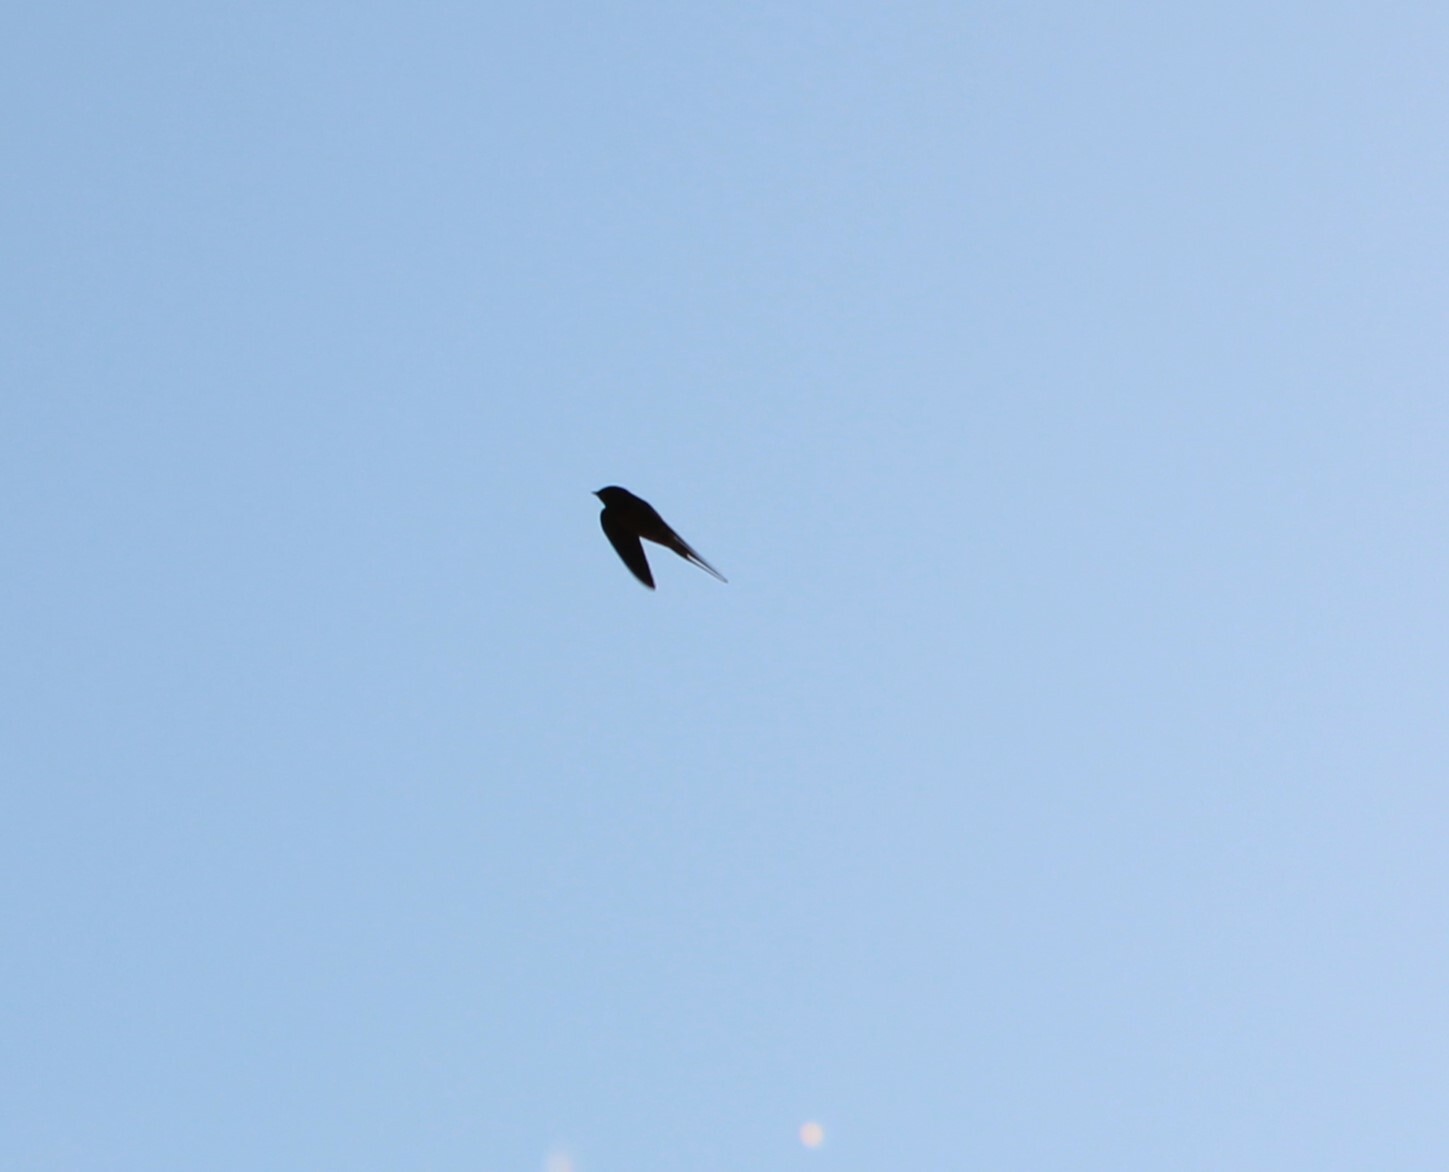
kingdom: Animalia
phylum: Chordata
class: Aves
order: Passeriformes
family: Hirundinidae
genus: Hirundo
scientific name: Hirundo rustica
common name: Barn swallow
